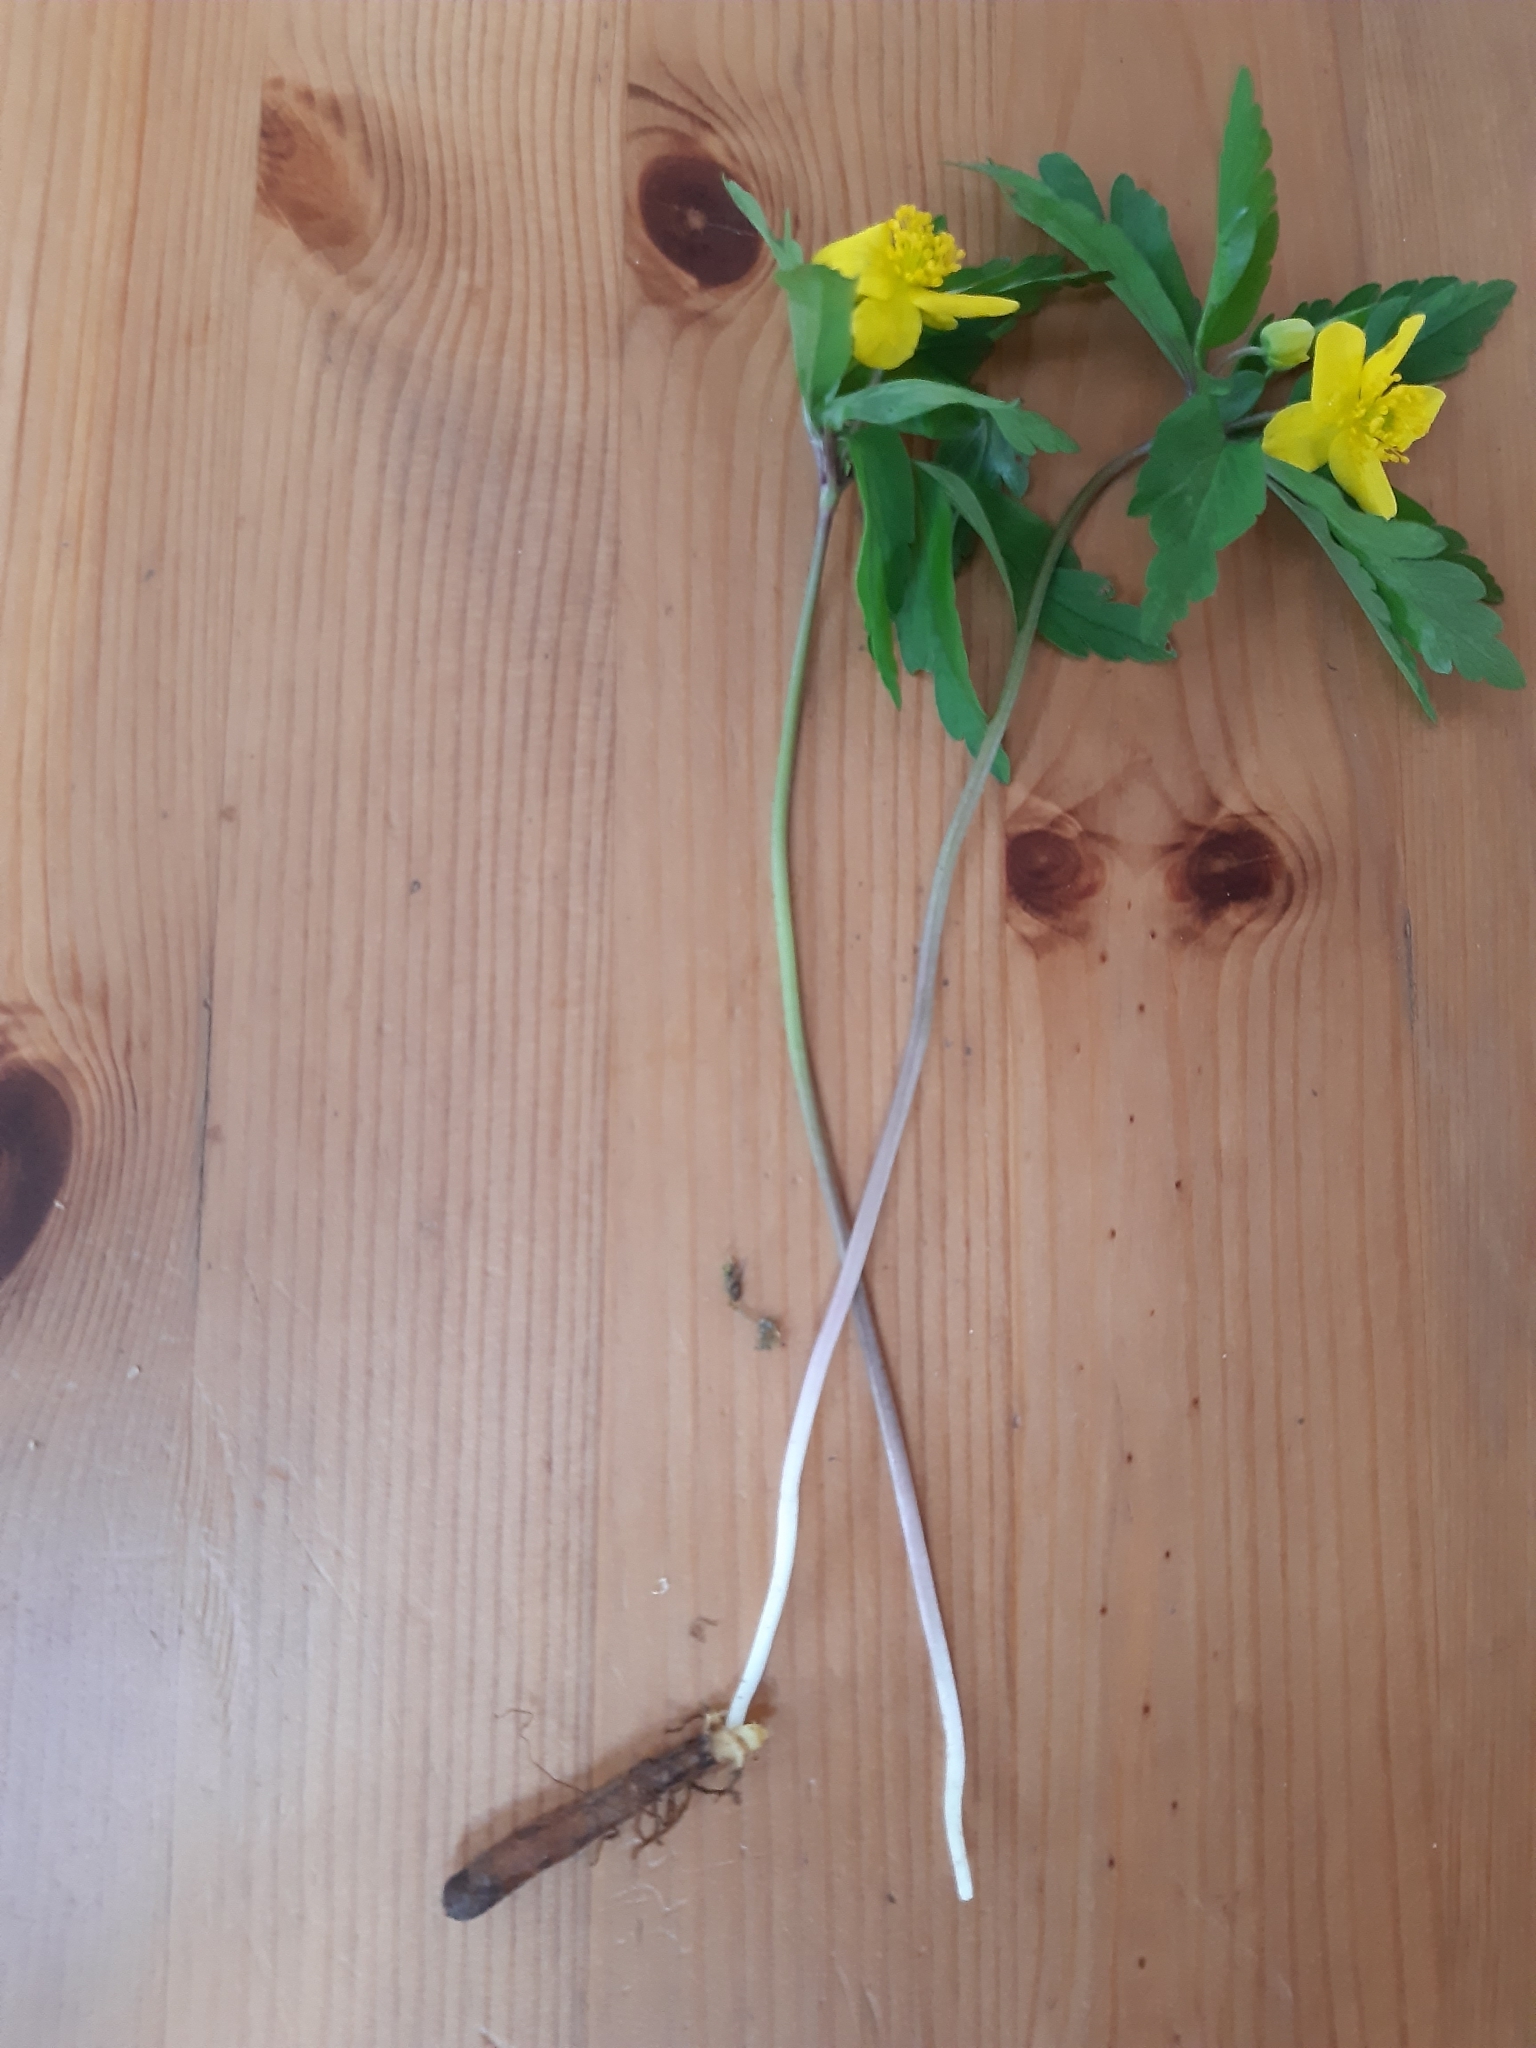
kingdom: Plantae
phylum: Tracheophyta
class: Magnoliopsida
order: Ranunculales
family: Ranunculaceae
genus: Anemone
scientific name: Anemone ranunculoides
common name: Yellow anemone
